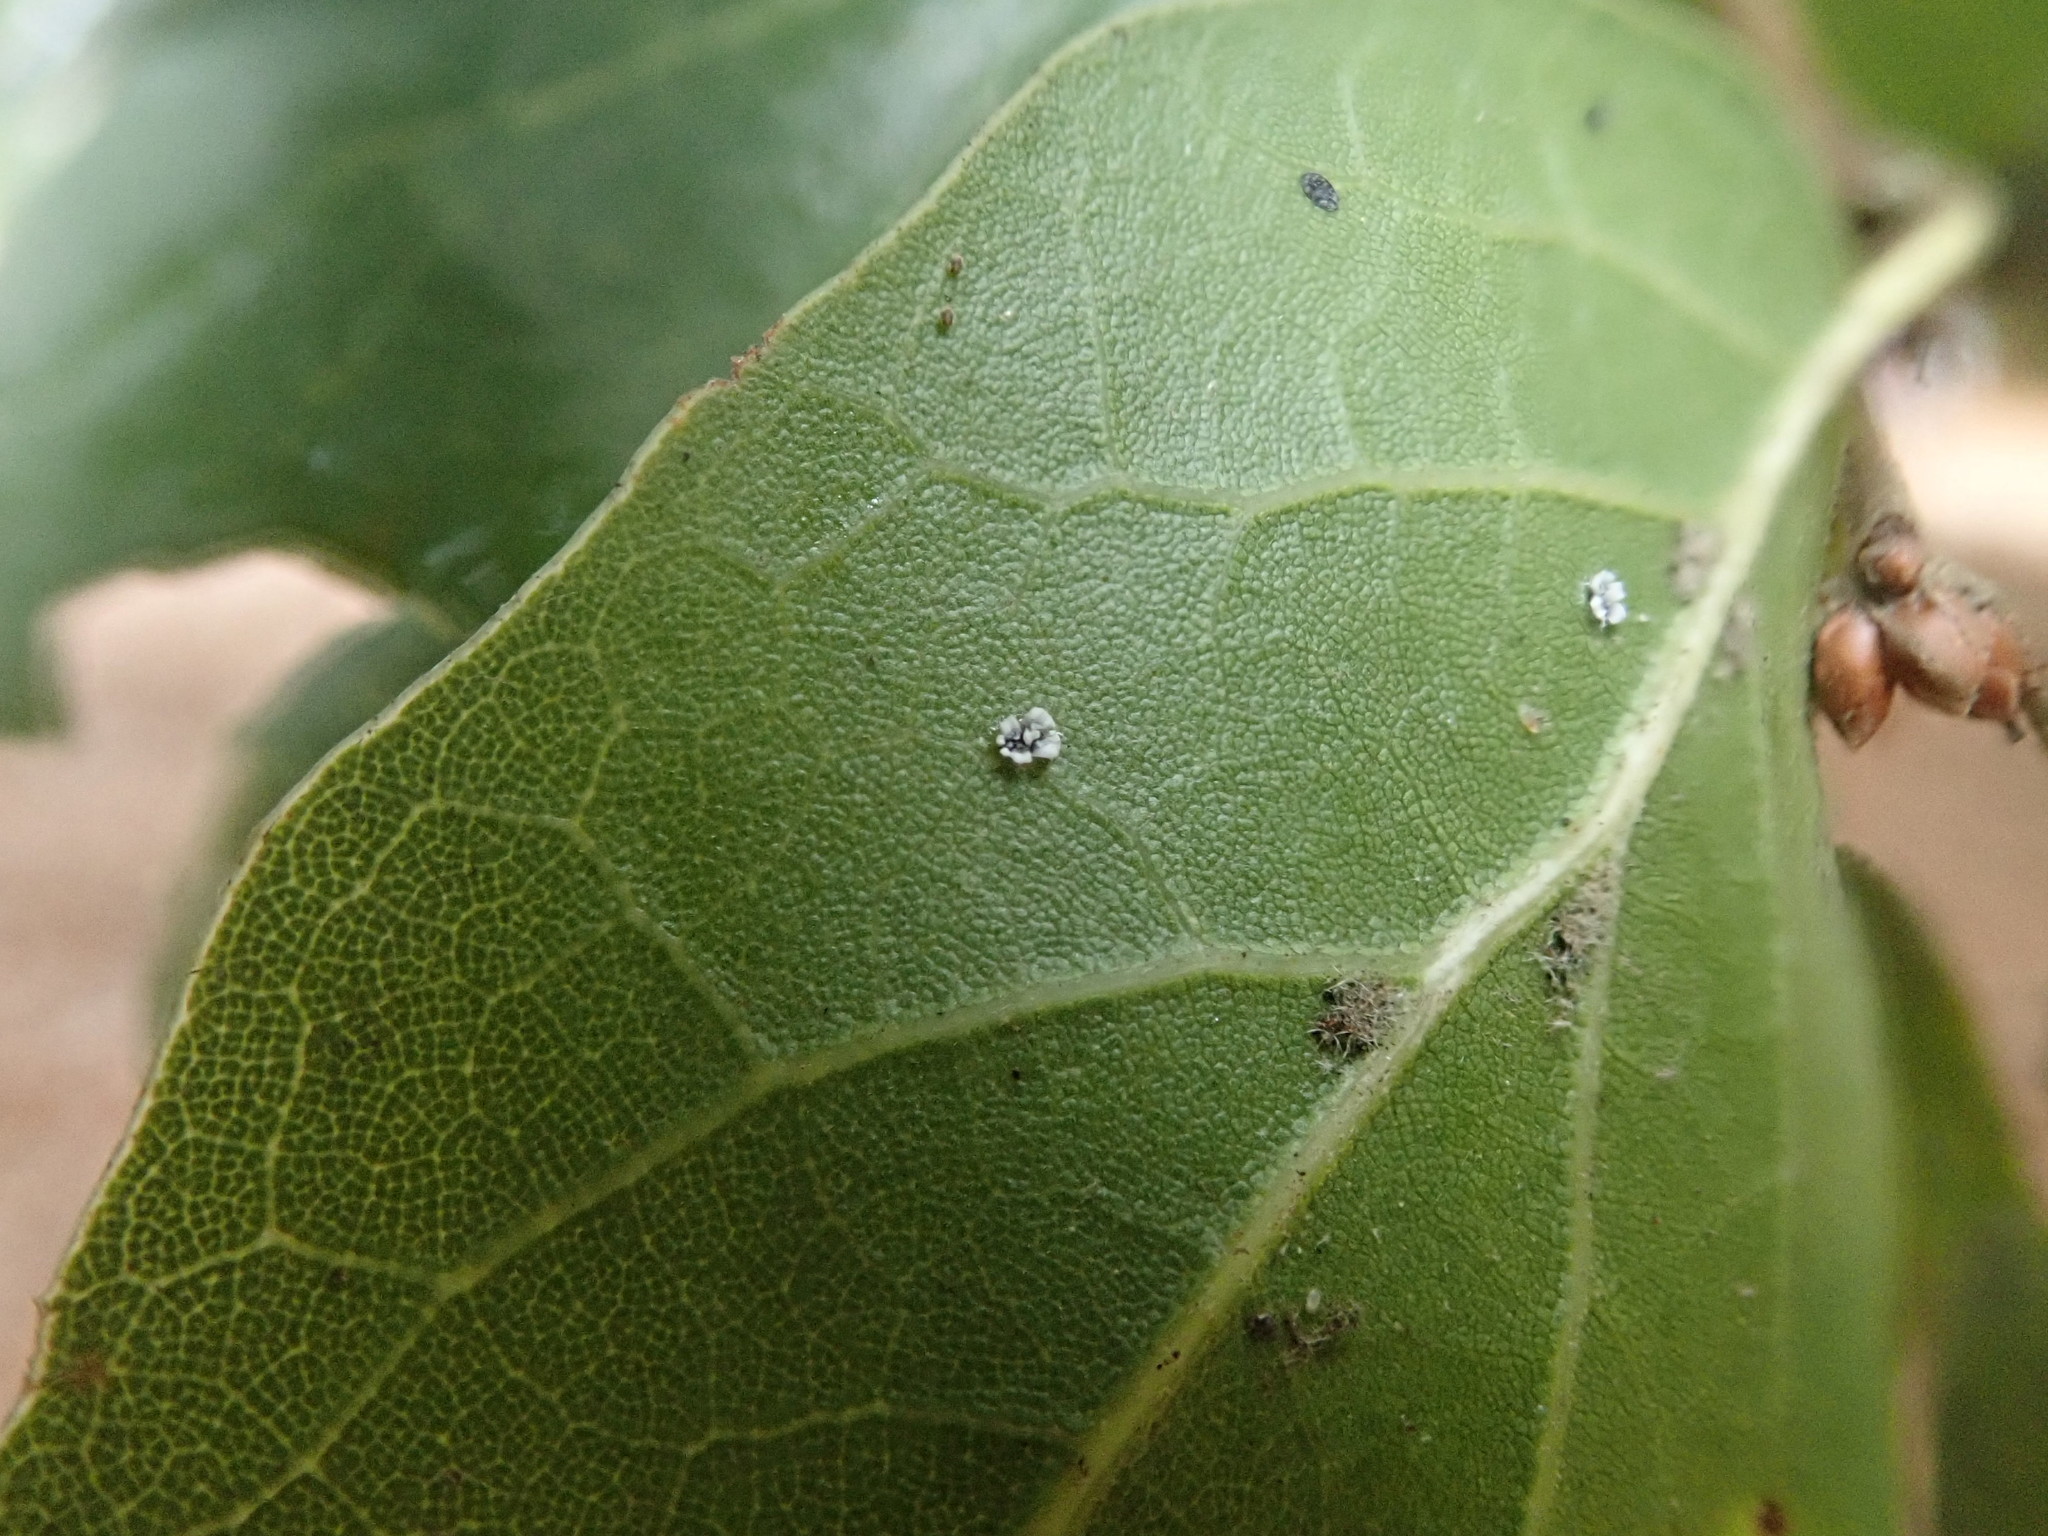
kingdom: Animalia
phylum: Arthropoda
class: Insecta
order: Hemiptera
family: Aleyrodidae
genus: Aleuroplatus
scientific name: Aleuroplatus coronata
